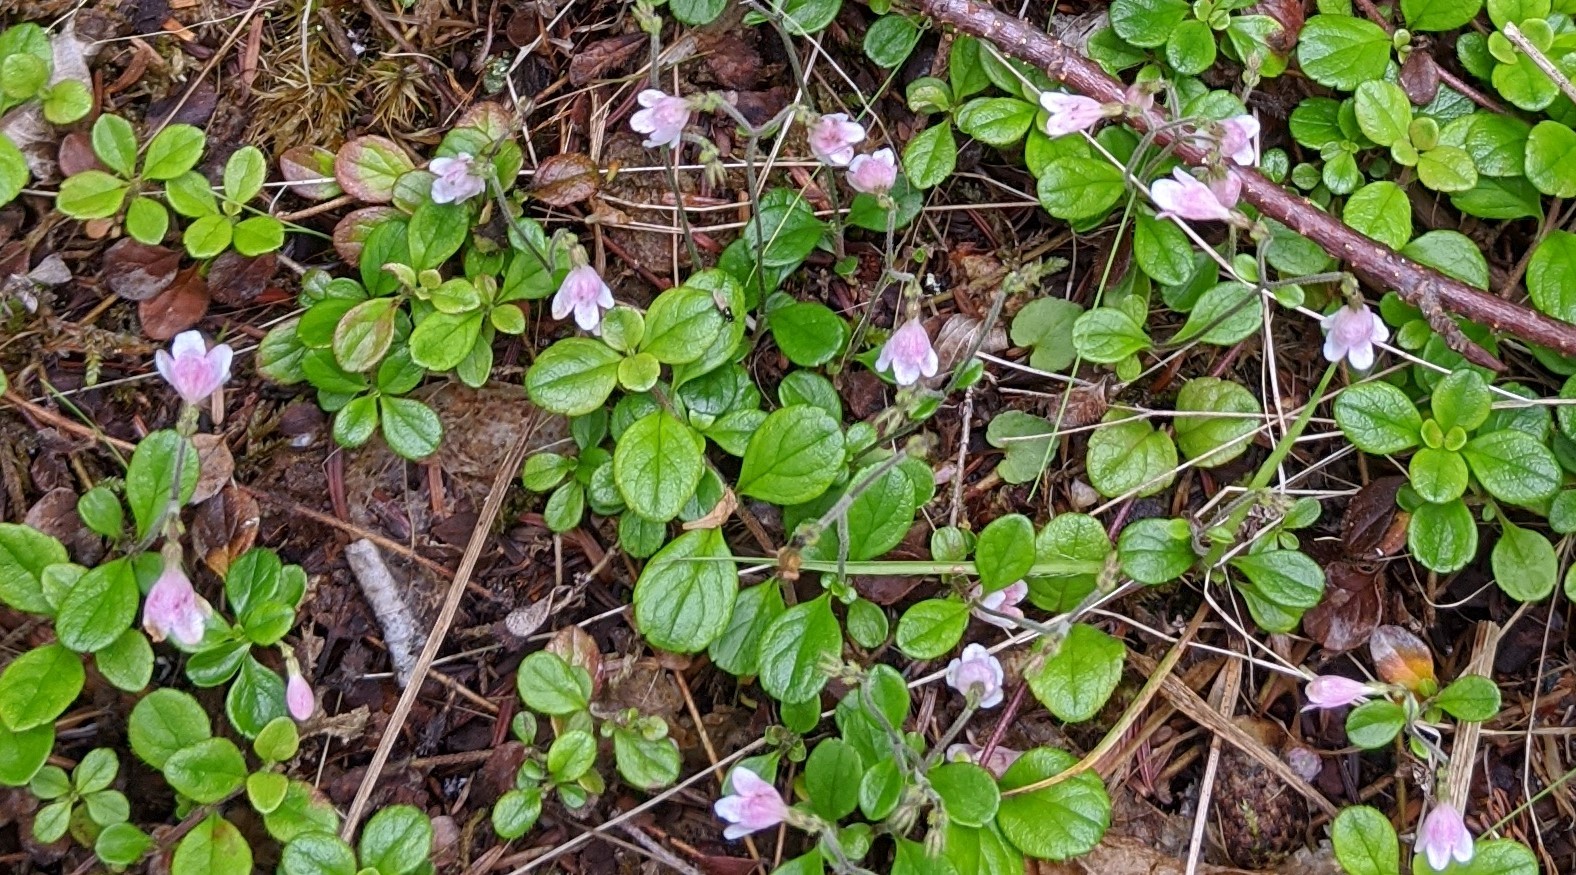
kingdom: Plantae
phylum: Tracheophyta
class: Magnoliopsida
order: Dipsacales
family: Caprifoliaceae
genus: Linnaea
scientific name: Linnaea borealis
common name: Twinflower
